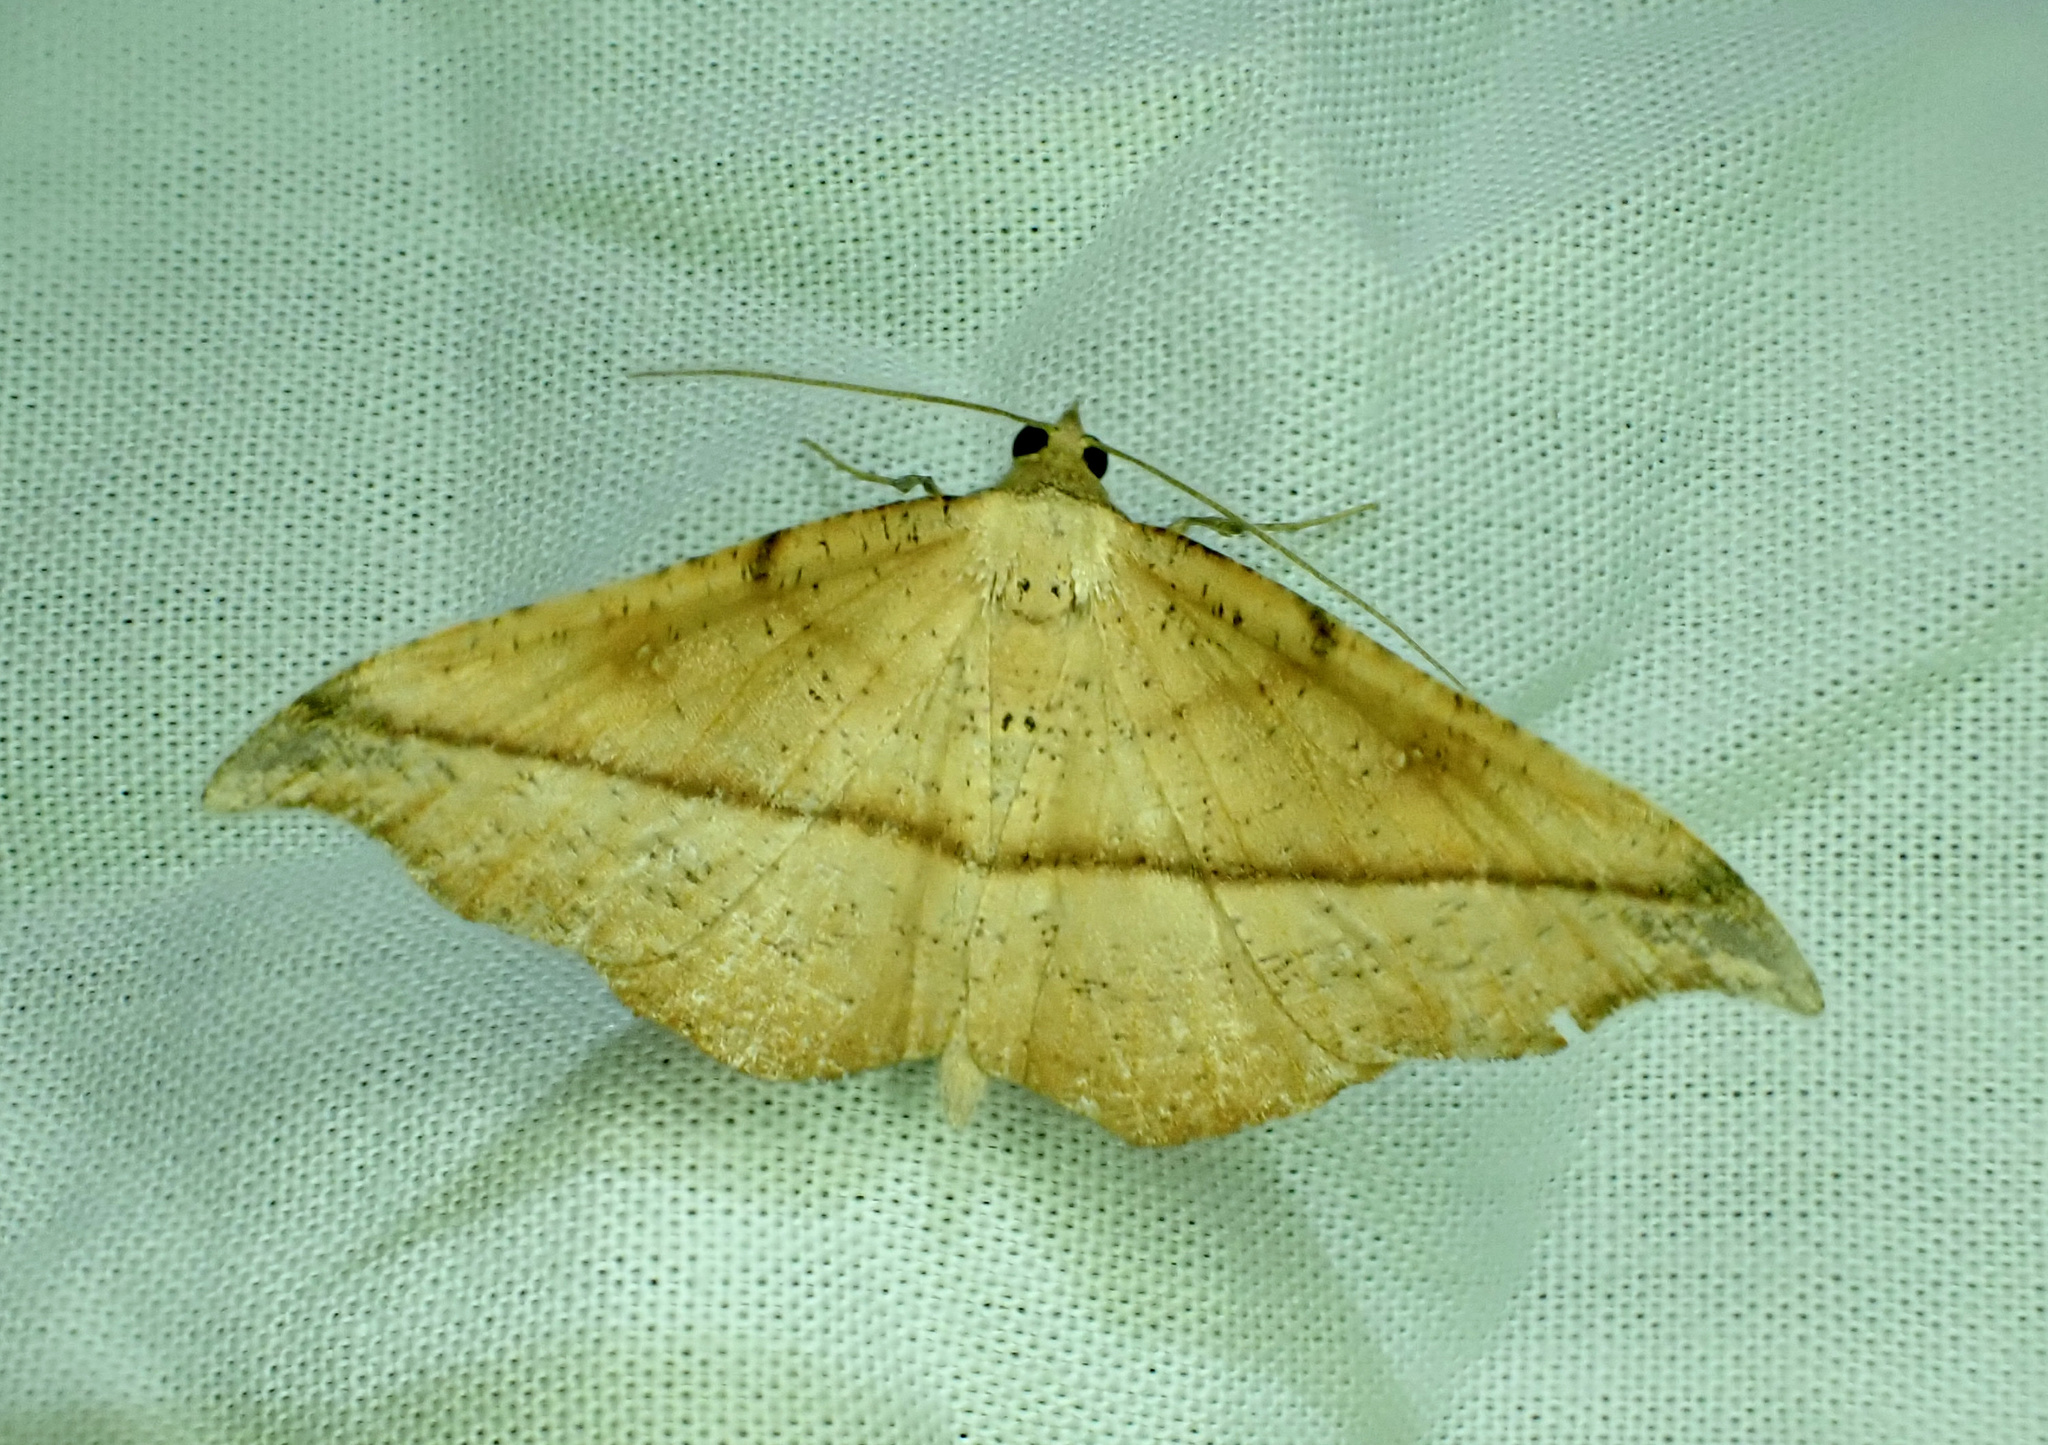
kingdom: Animalia
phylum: Arthropoda
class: Insecta
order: Lepidoptera
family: Geometridae
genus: Sarisa
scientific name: Sarisa muriferata
